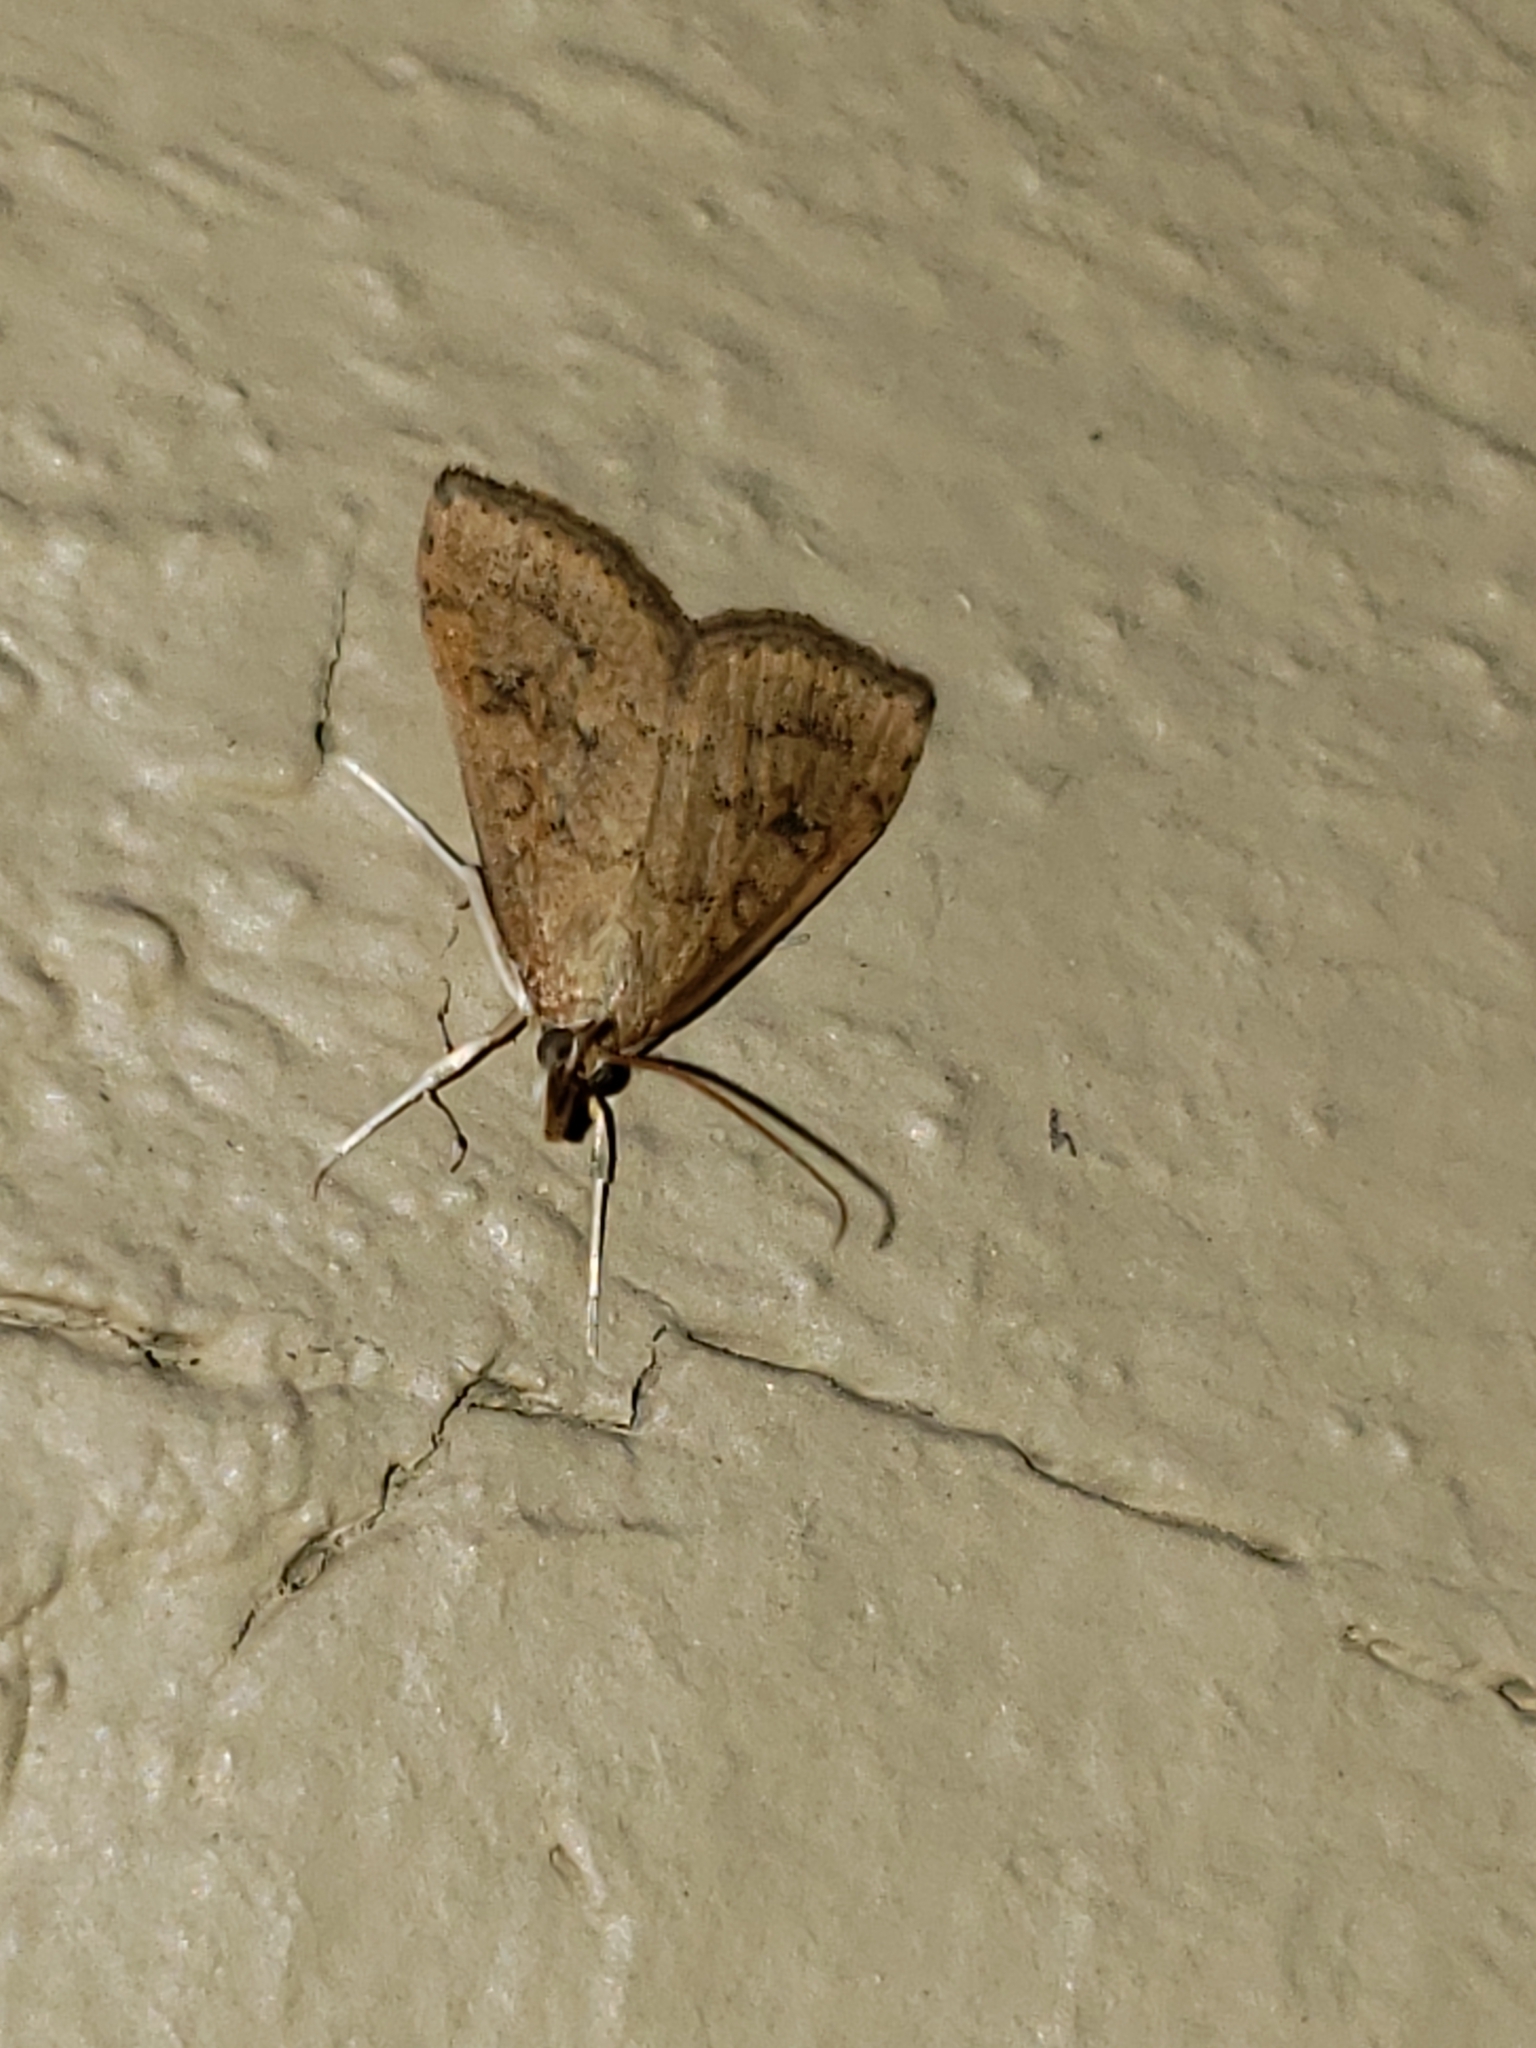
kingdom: Animalia
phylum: Arthropoda
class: Insecta
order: Lepidoptera
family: Crambidae
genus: Udea
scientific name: Udea rubigalis
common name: Celery leaftier moth
